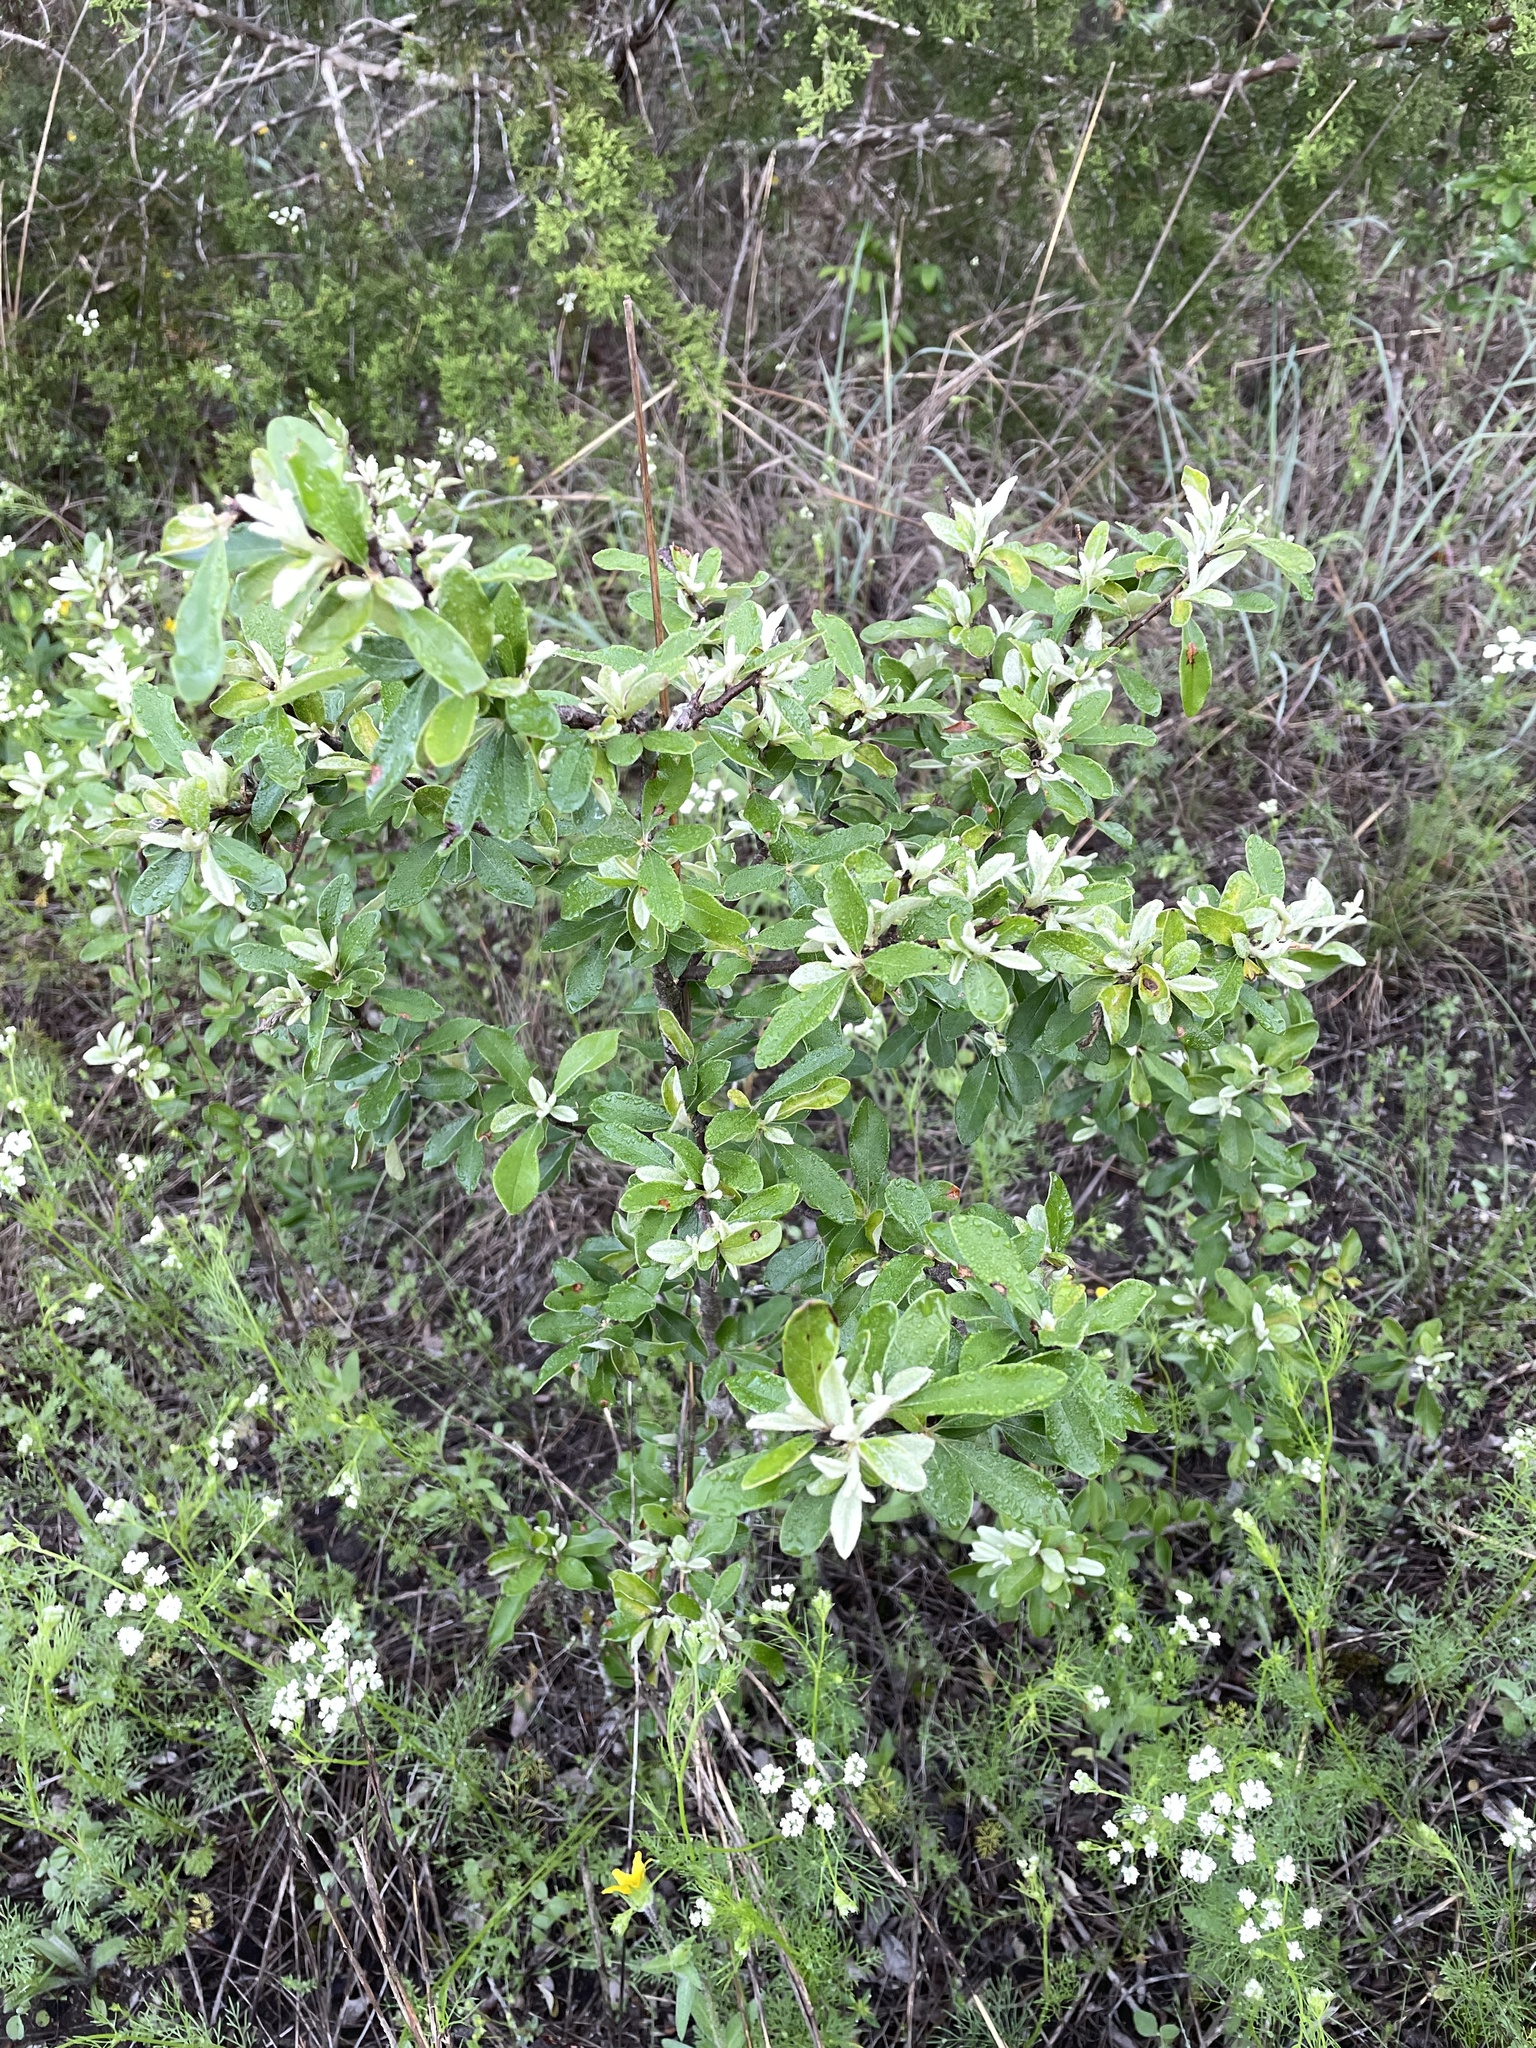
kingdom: Plantae
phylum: Tracheophyta
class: Magnoliopsida
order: Ericales
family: Sapotaceae
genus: Sideroxylon
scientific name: Sideroxylon lanuginosum
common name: Chittamwood
